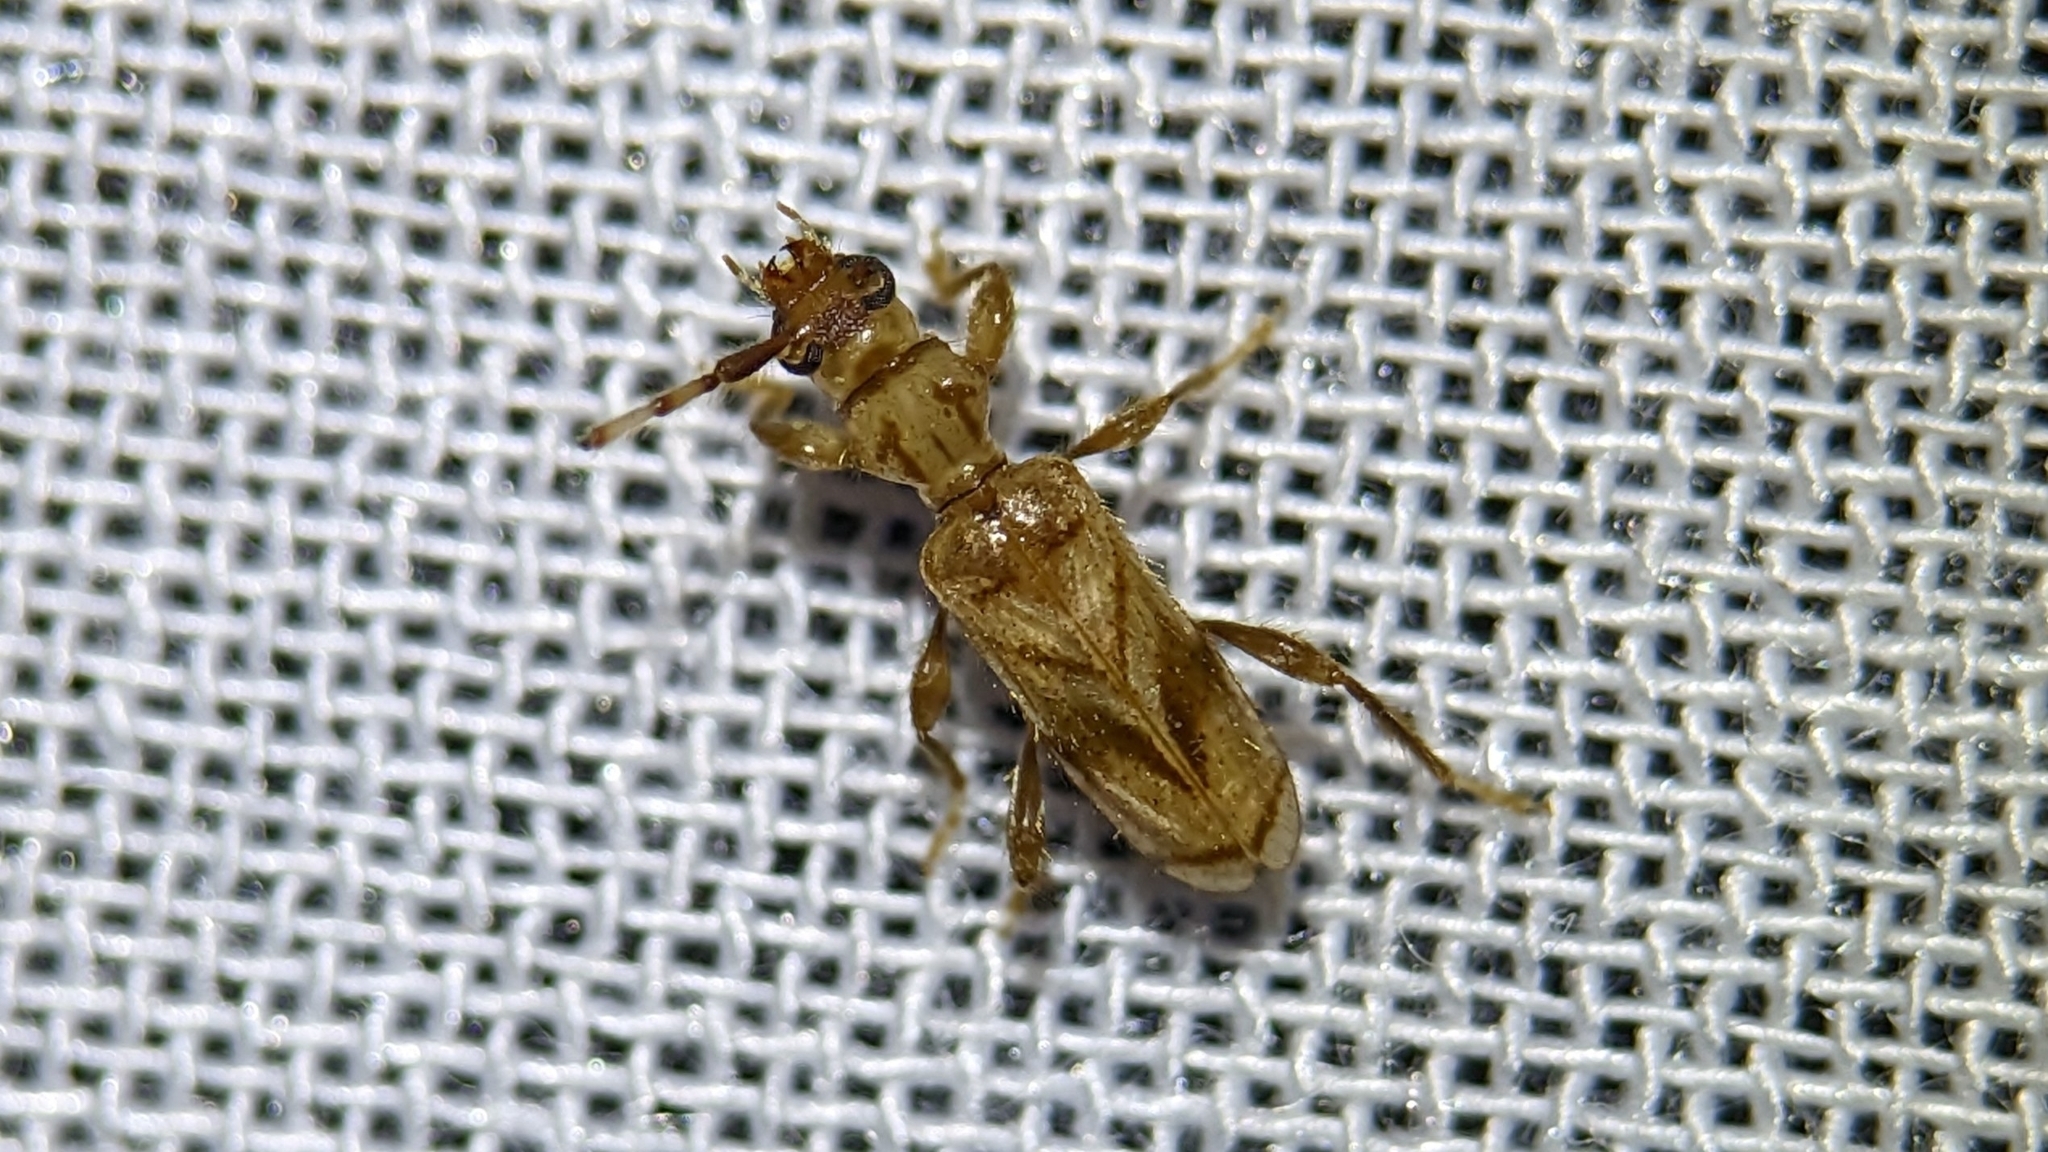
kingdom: Animalia
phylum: Arthropoda
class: Insecta
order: Coleoptera
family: Cerambycidae
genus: Obrium
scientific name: Obrium maculatum
